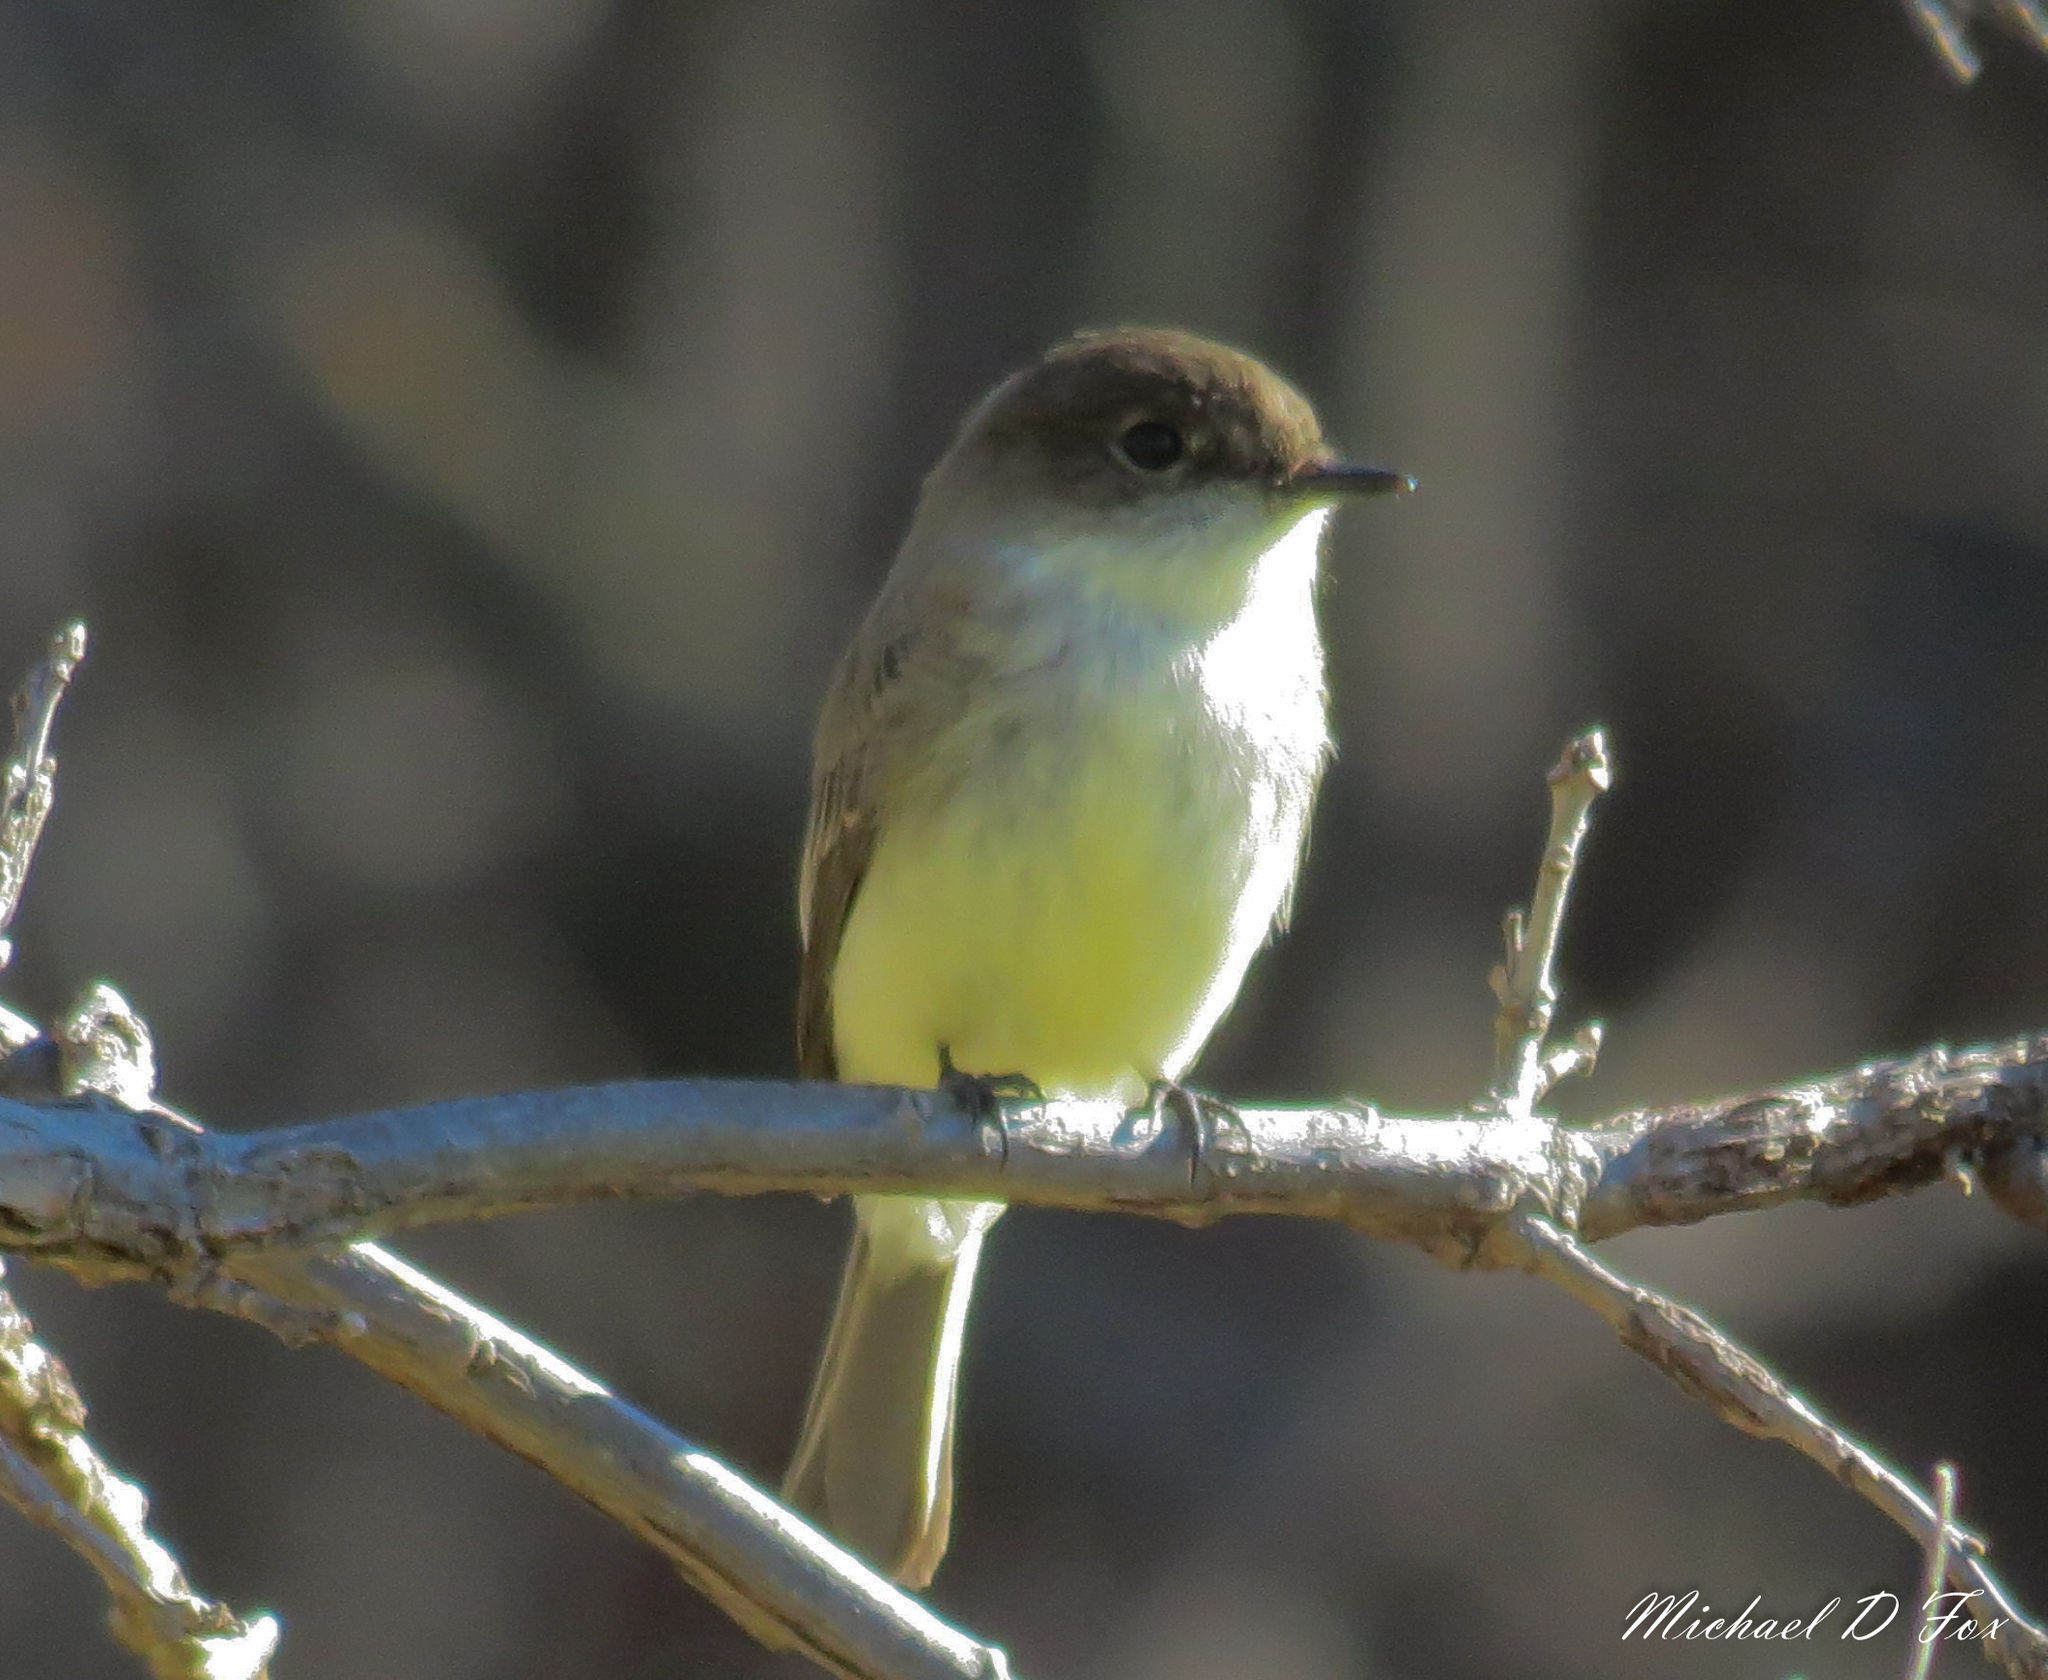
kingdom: Animalia
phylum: Chordata
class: Aves
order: Passeriformes
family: Tyrannidae
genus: Sayornis
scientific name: Sayornis phoebe
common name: Eastern phoebe
